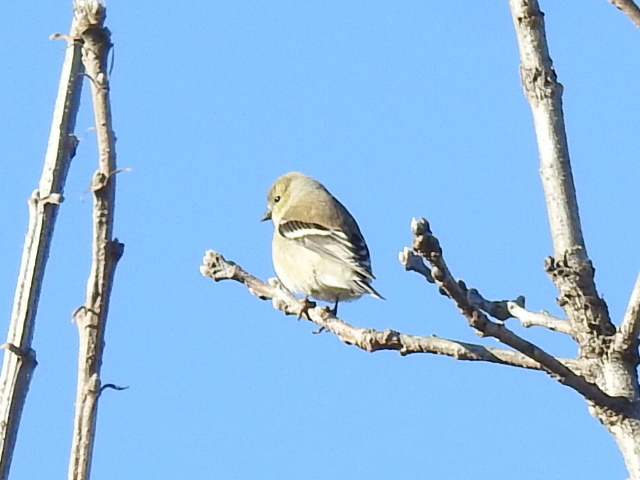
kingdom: Animalia
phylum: Chordata
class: Aves
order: Passeriformes
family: Fringillidae
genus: Spinus
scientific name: Spinus tristis
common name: American goldfinch
